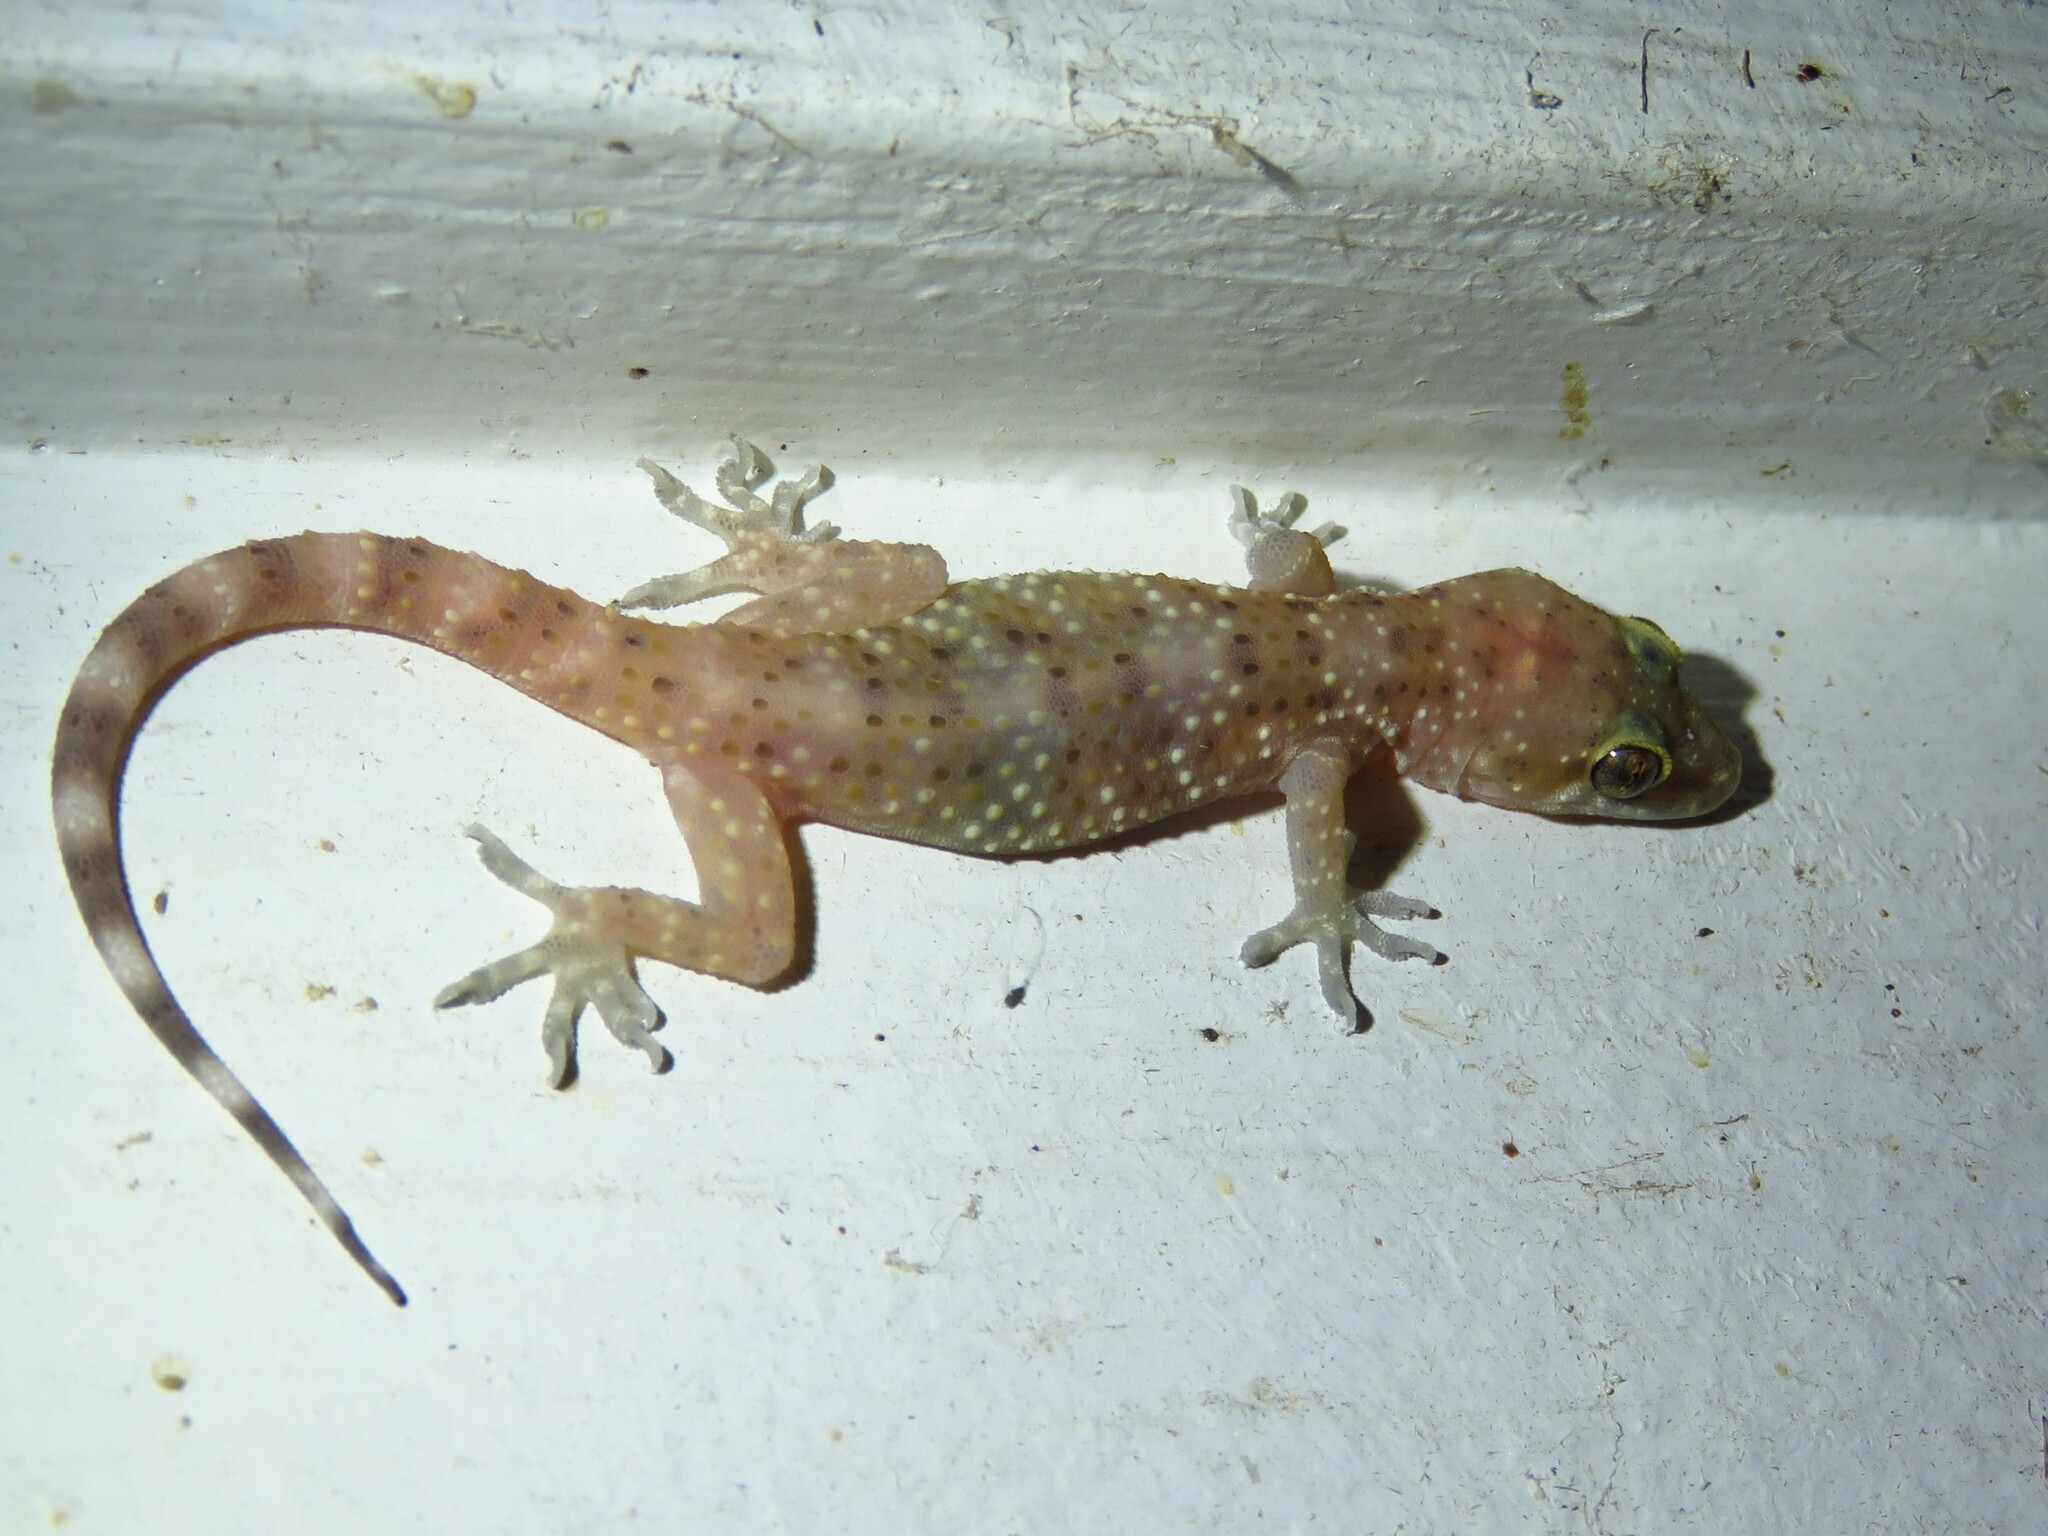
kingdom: Animalia
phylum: Chordata
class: Squamata
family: Gekkonidae
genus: Hemidactylus
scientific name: Hemidactylus turcicus
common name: Turkish gecko
